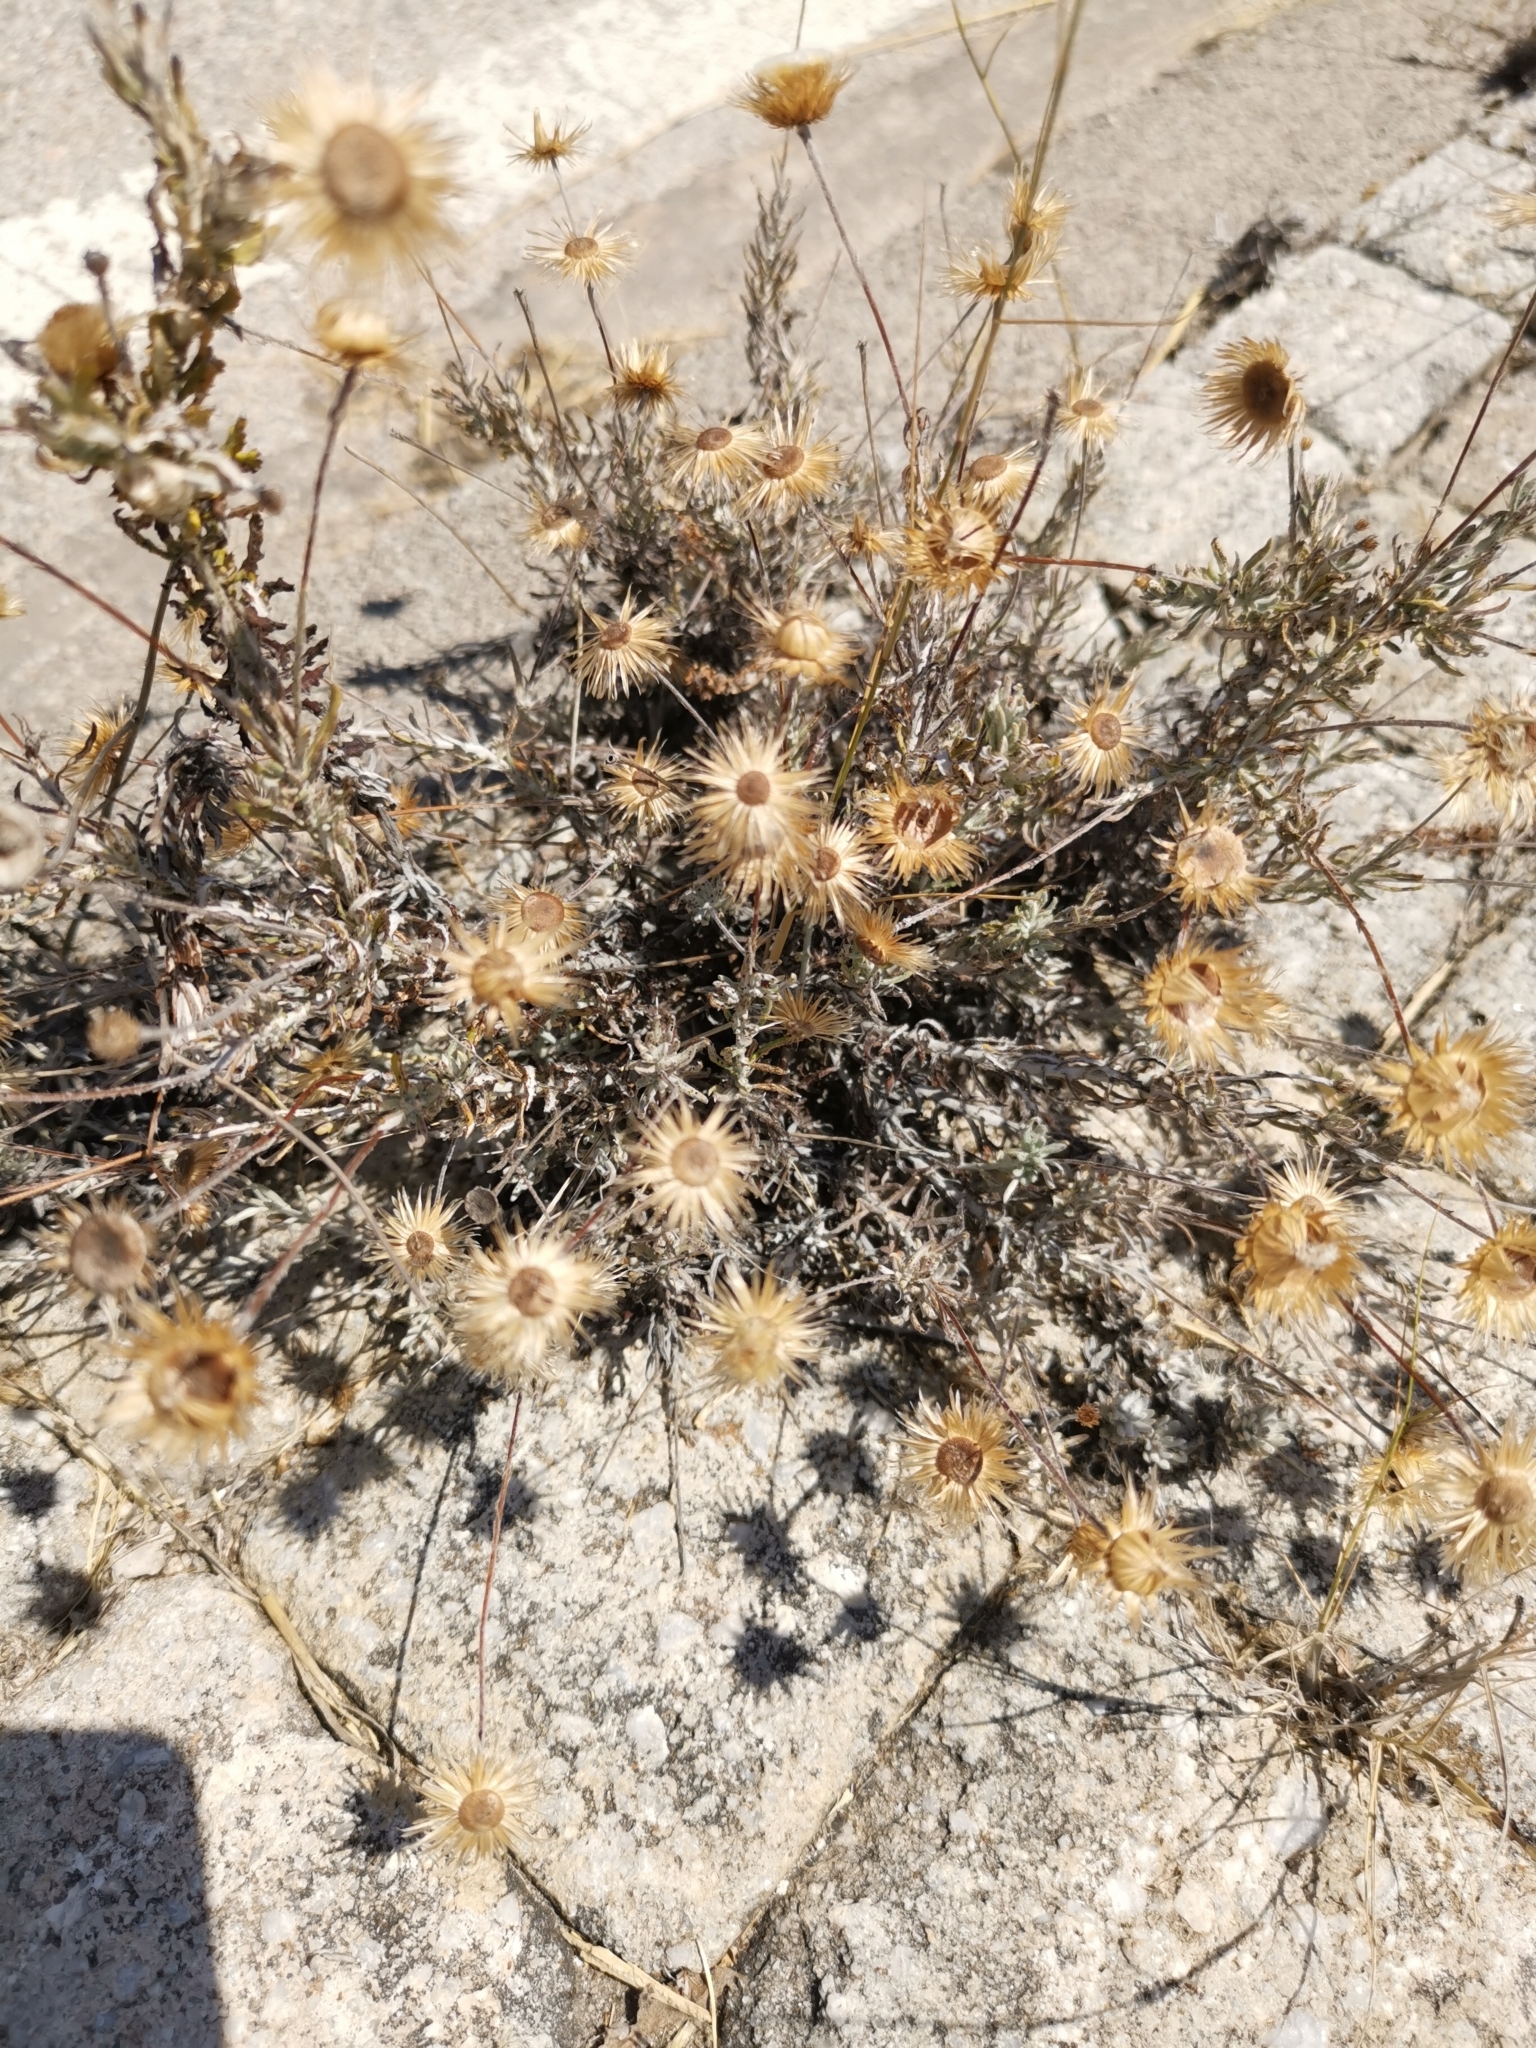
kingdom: Plantae
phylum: Tracheophyta
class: Magnoliopsida
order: Asterales
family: Asteraceae
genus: Phagnalon
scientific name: Phagnalon graecum
